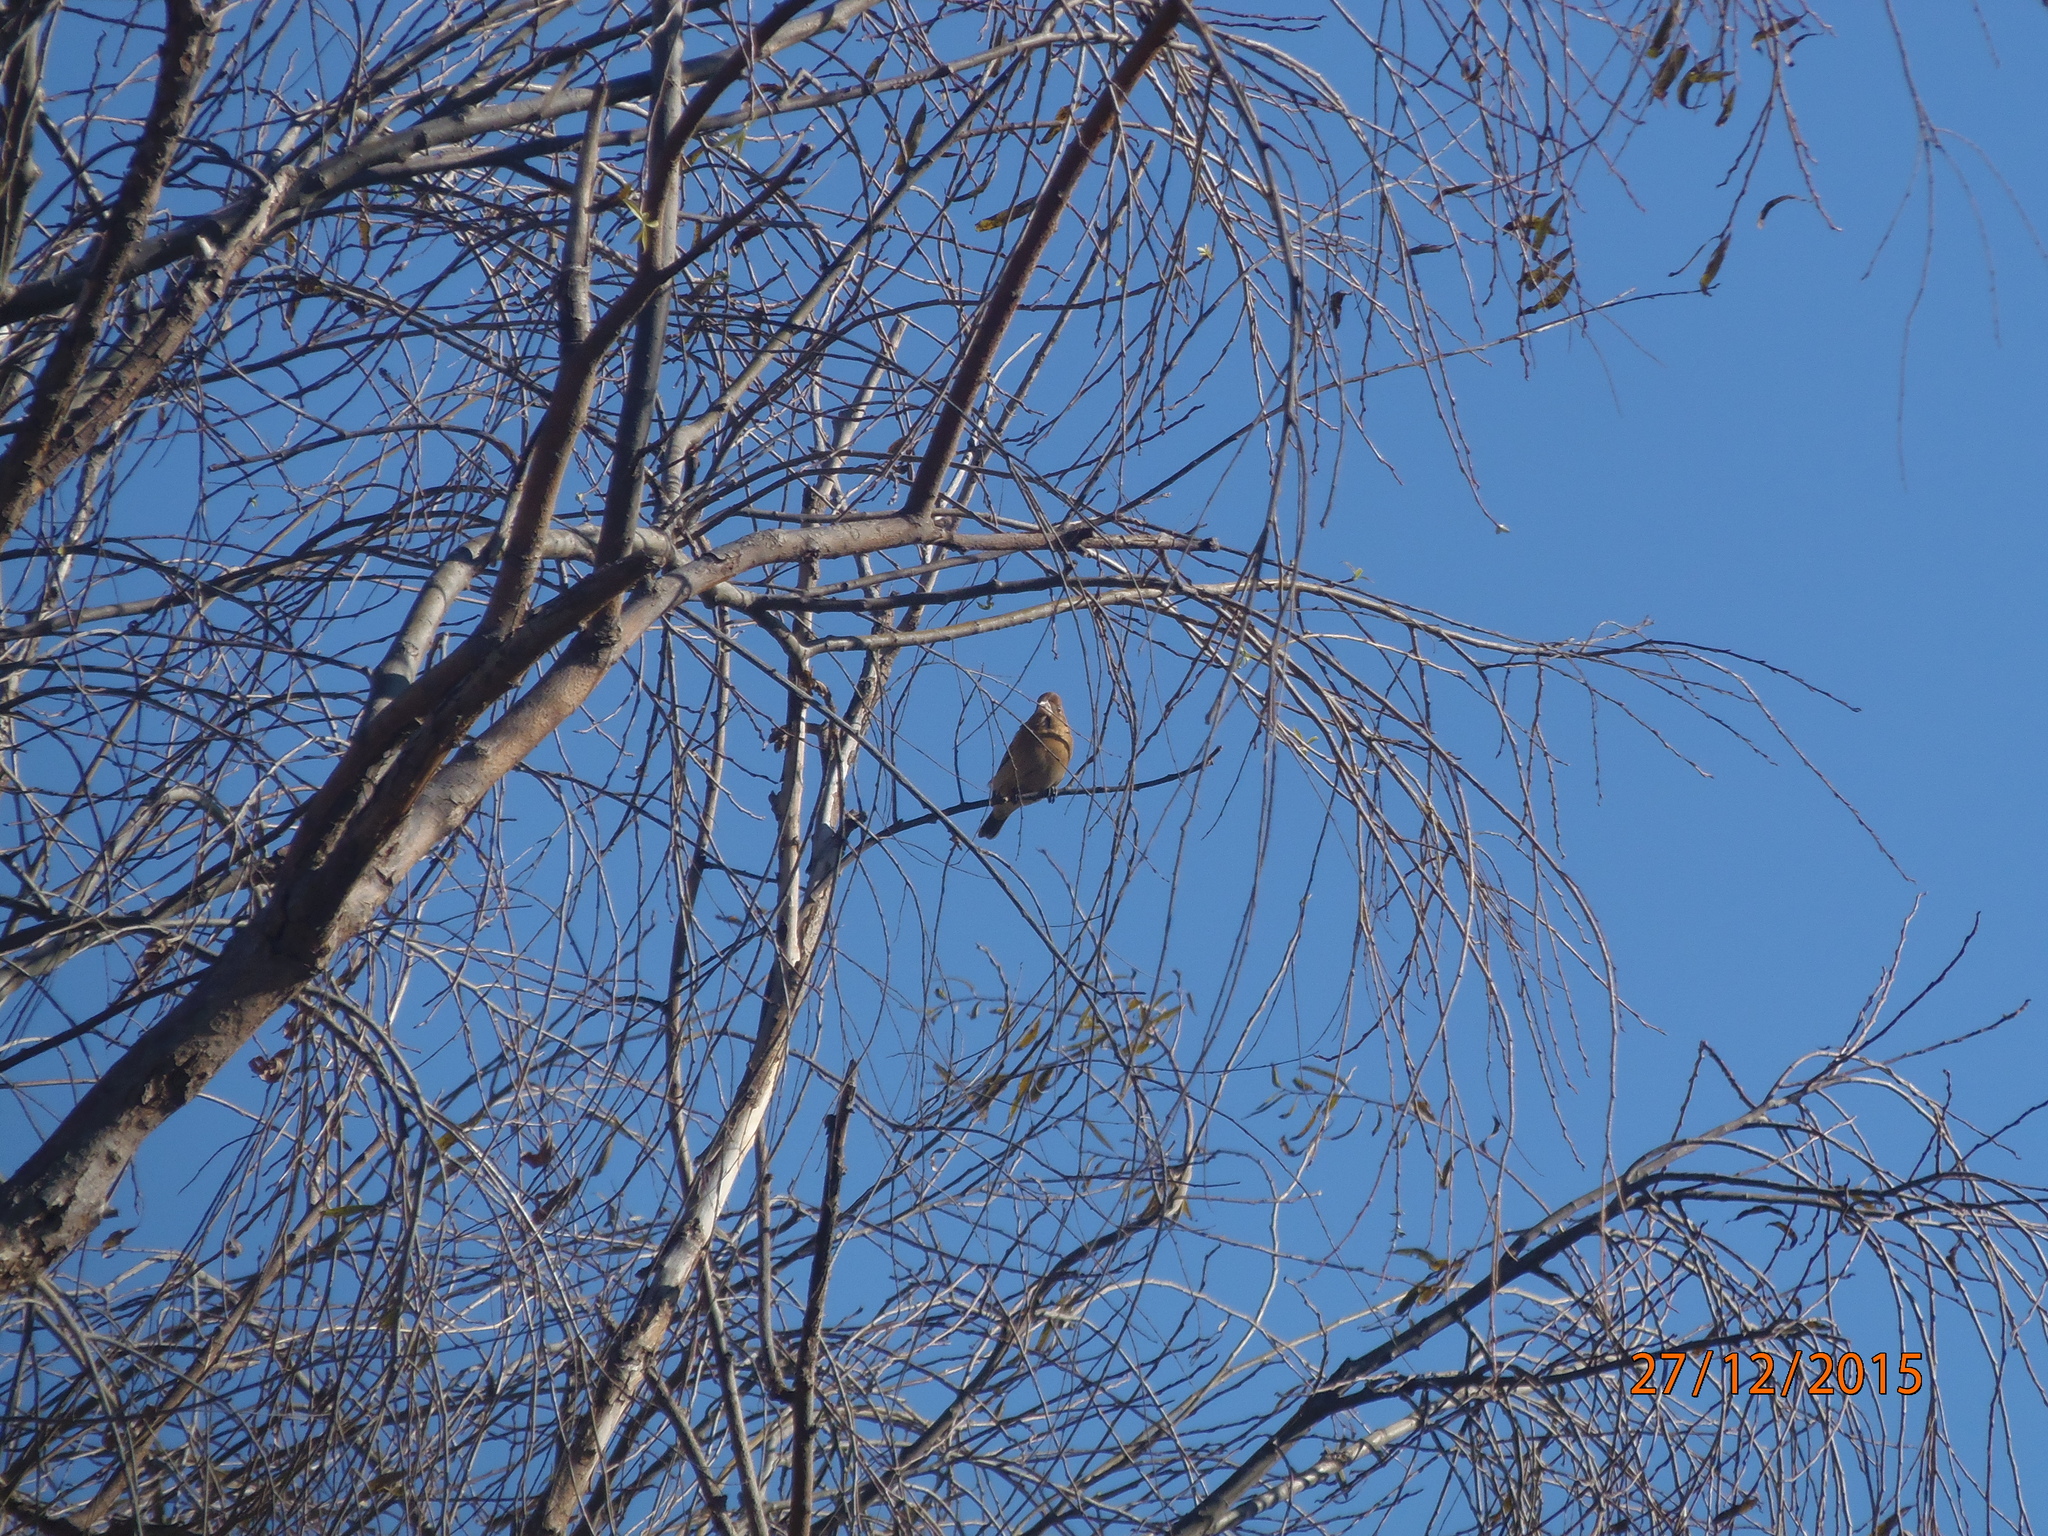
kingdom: Animalia
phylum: Chordata
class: Aves
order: Passeriformes
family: Cardinalidae
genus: Passerina
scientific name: Passerina caerulea
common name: Blue grosbeak
